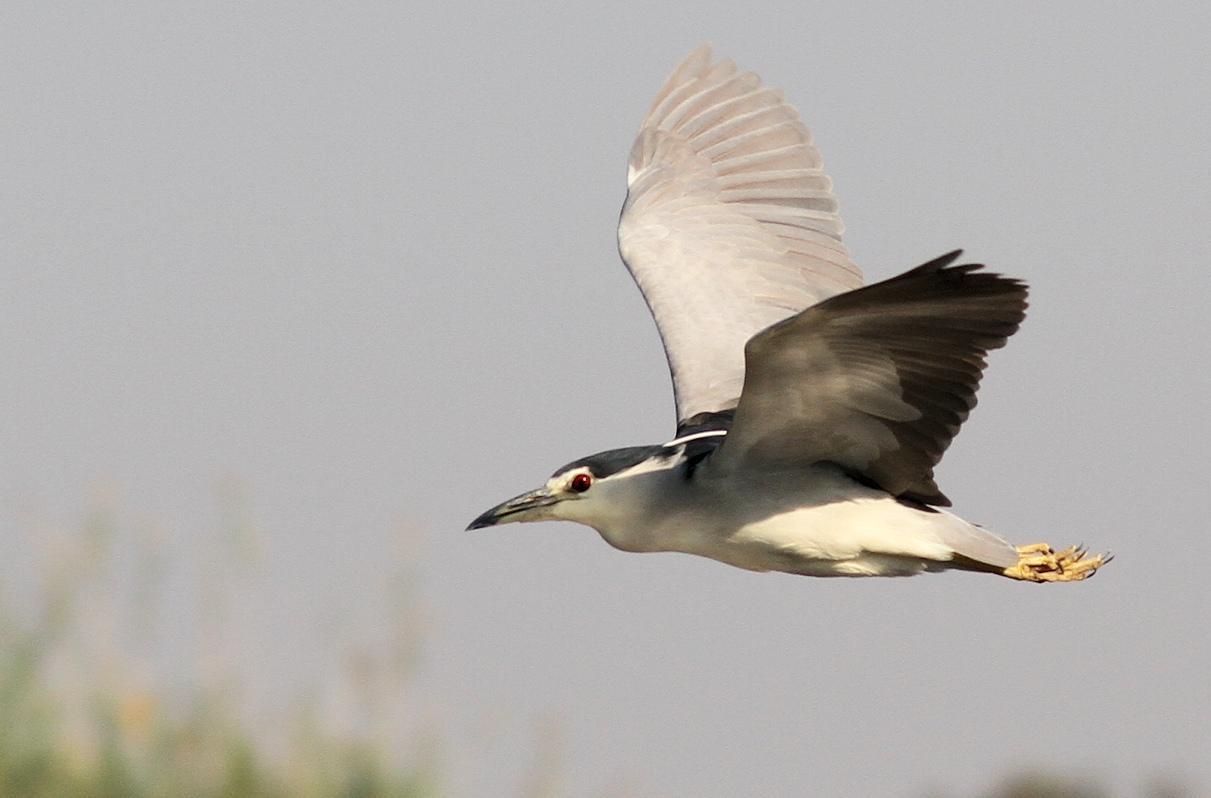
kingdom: Animalia
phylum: Chordata
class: Aves
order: Pelecaniformes
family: Ardeidae
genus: Nycticorax
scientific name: Nycticorax nycticorax
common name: Black-crowned night heron
